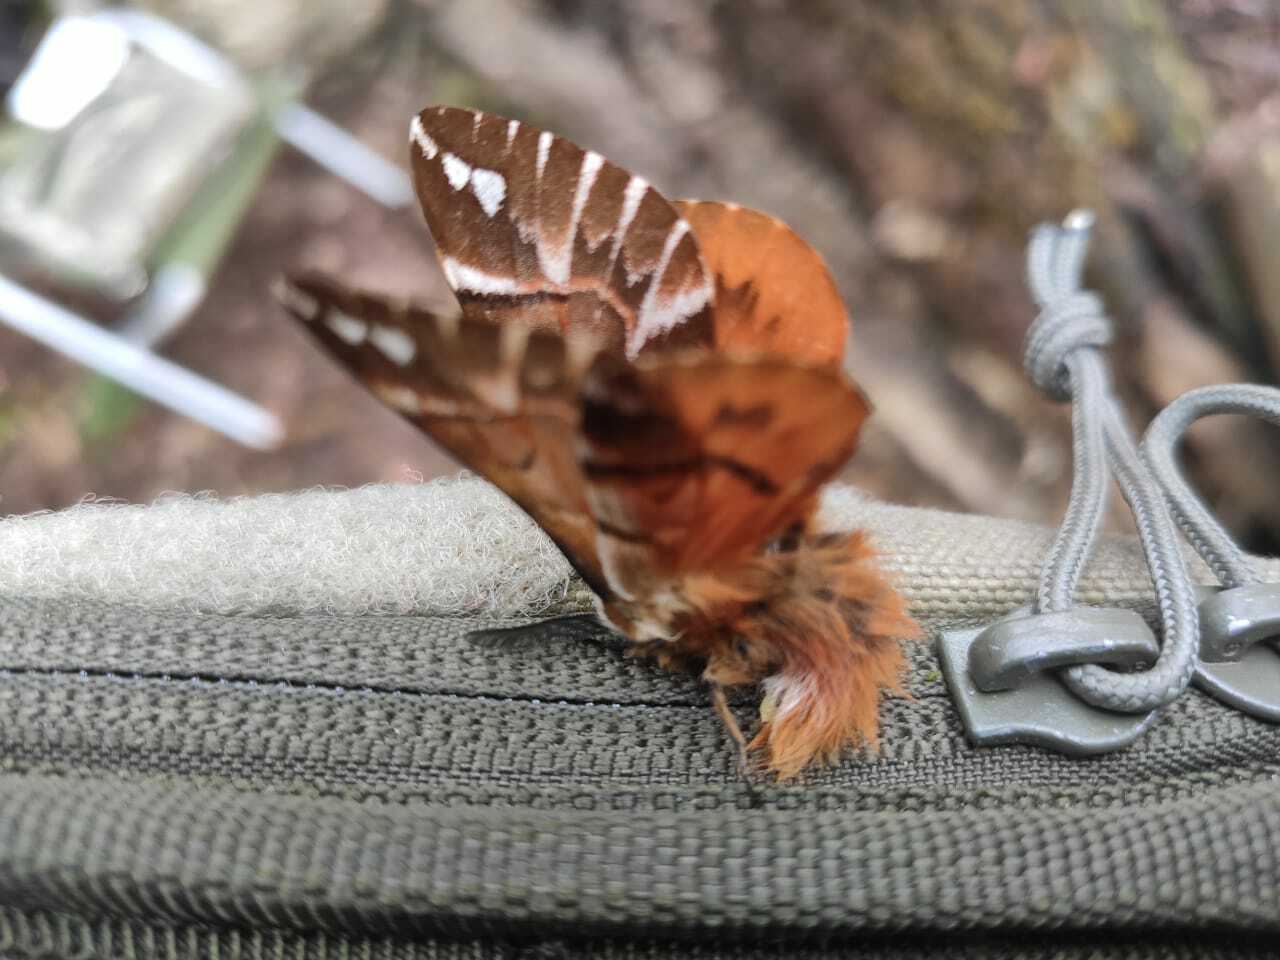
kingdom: Animalia
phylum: Arthropoda
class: Insecta
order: Lepidoptera
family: Endromidae
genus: Endromis
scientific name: Endromis versicolora
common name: Kentish glory
